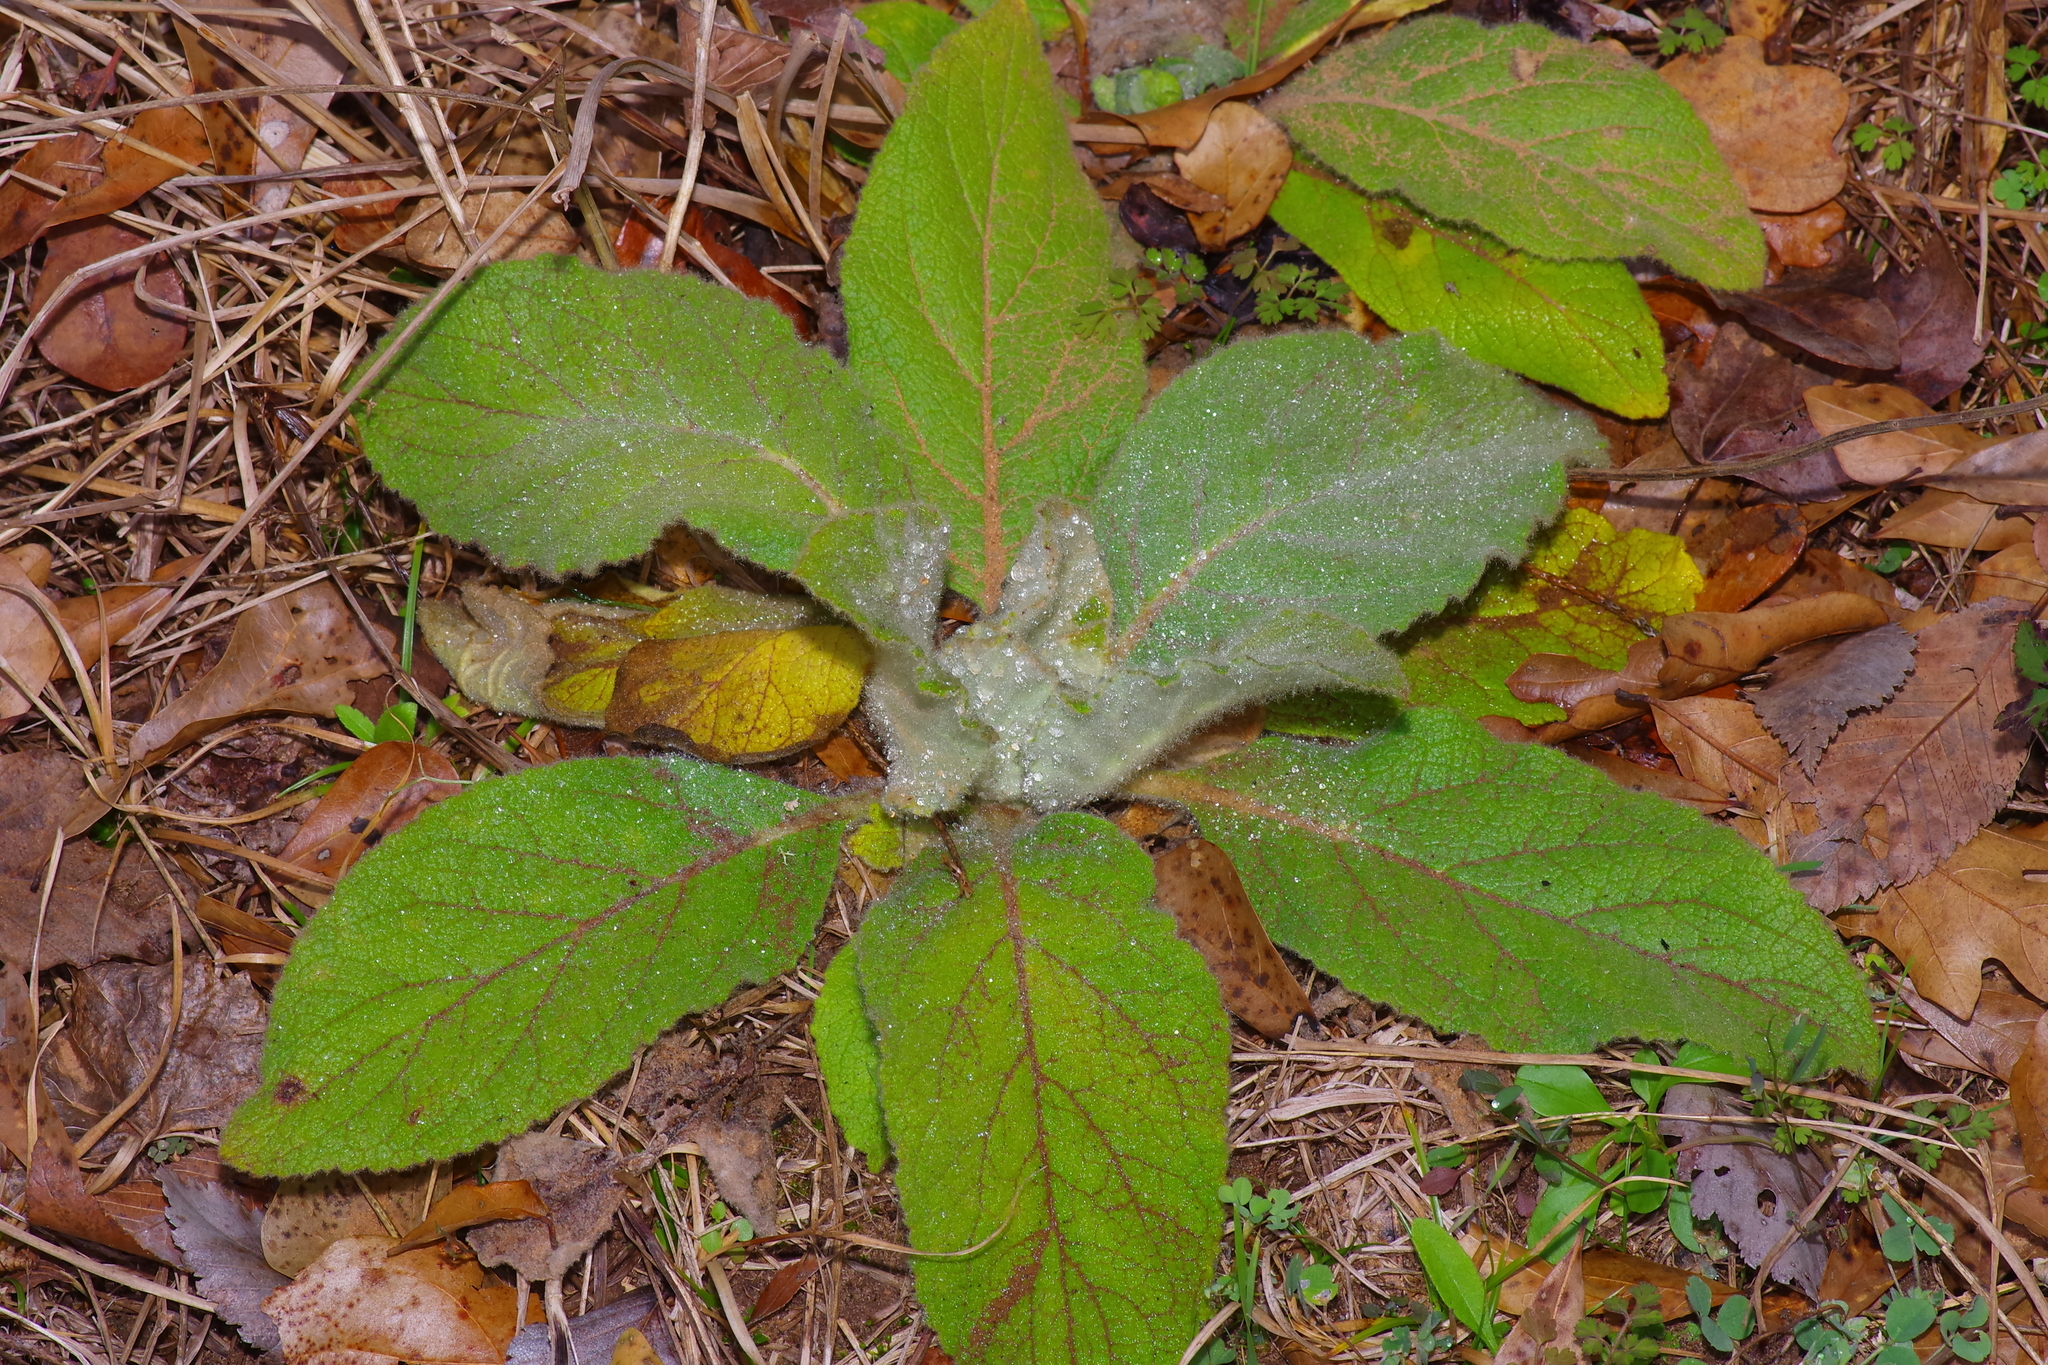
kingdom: Plantae
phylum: Tracheophyta
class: Magnoliopsida
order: Lamiales
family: Scrophulariaceae
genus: Verbascum
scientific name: Verbascum thapsus
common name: Common mullein
